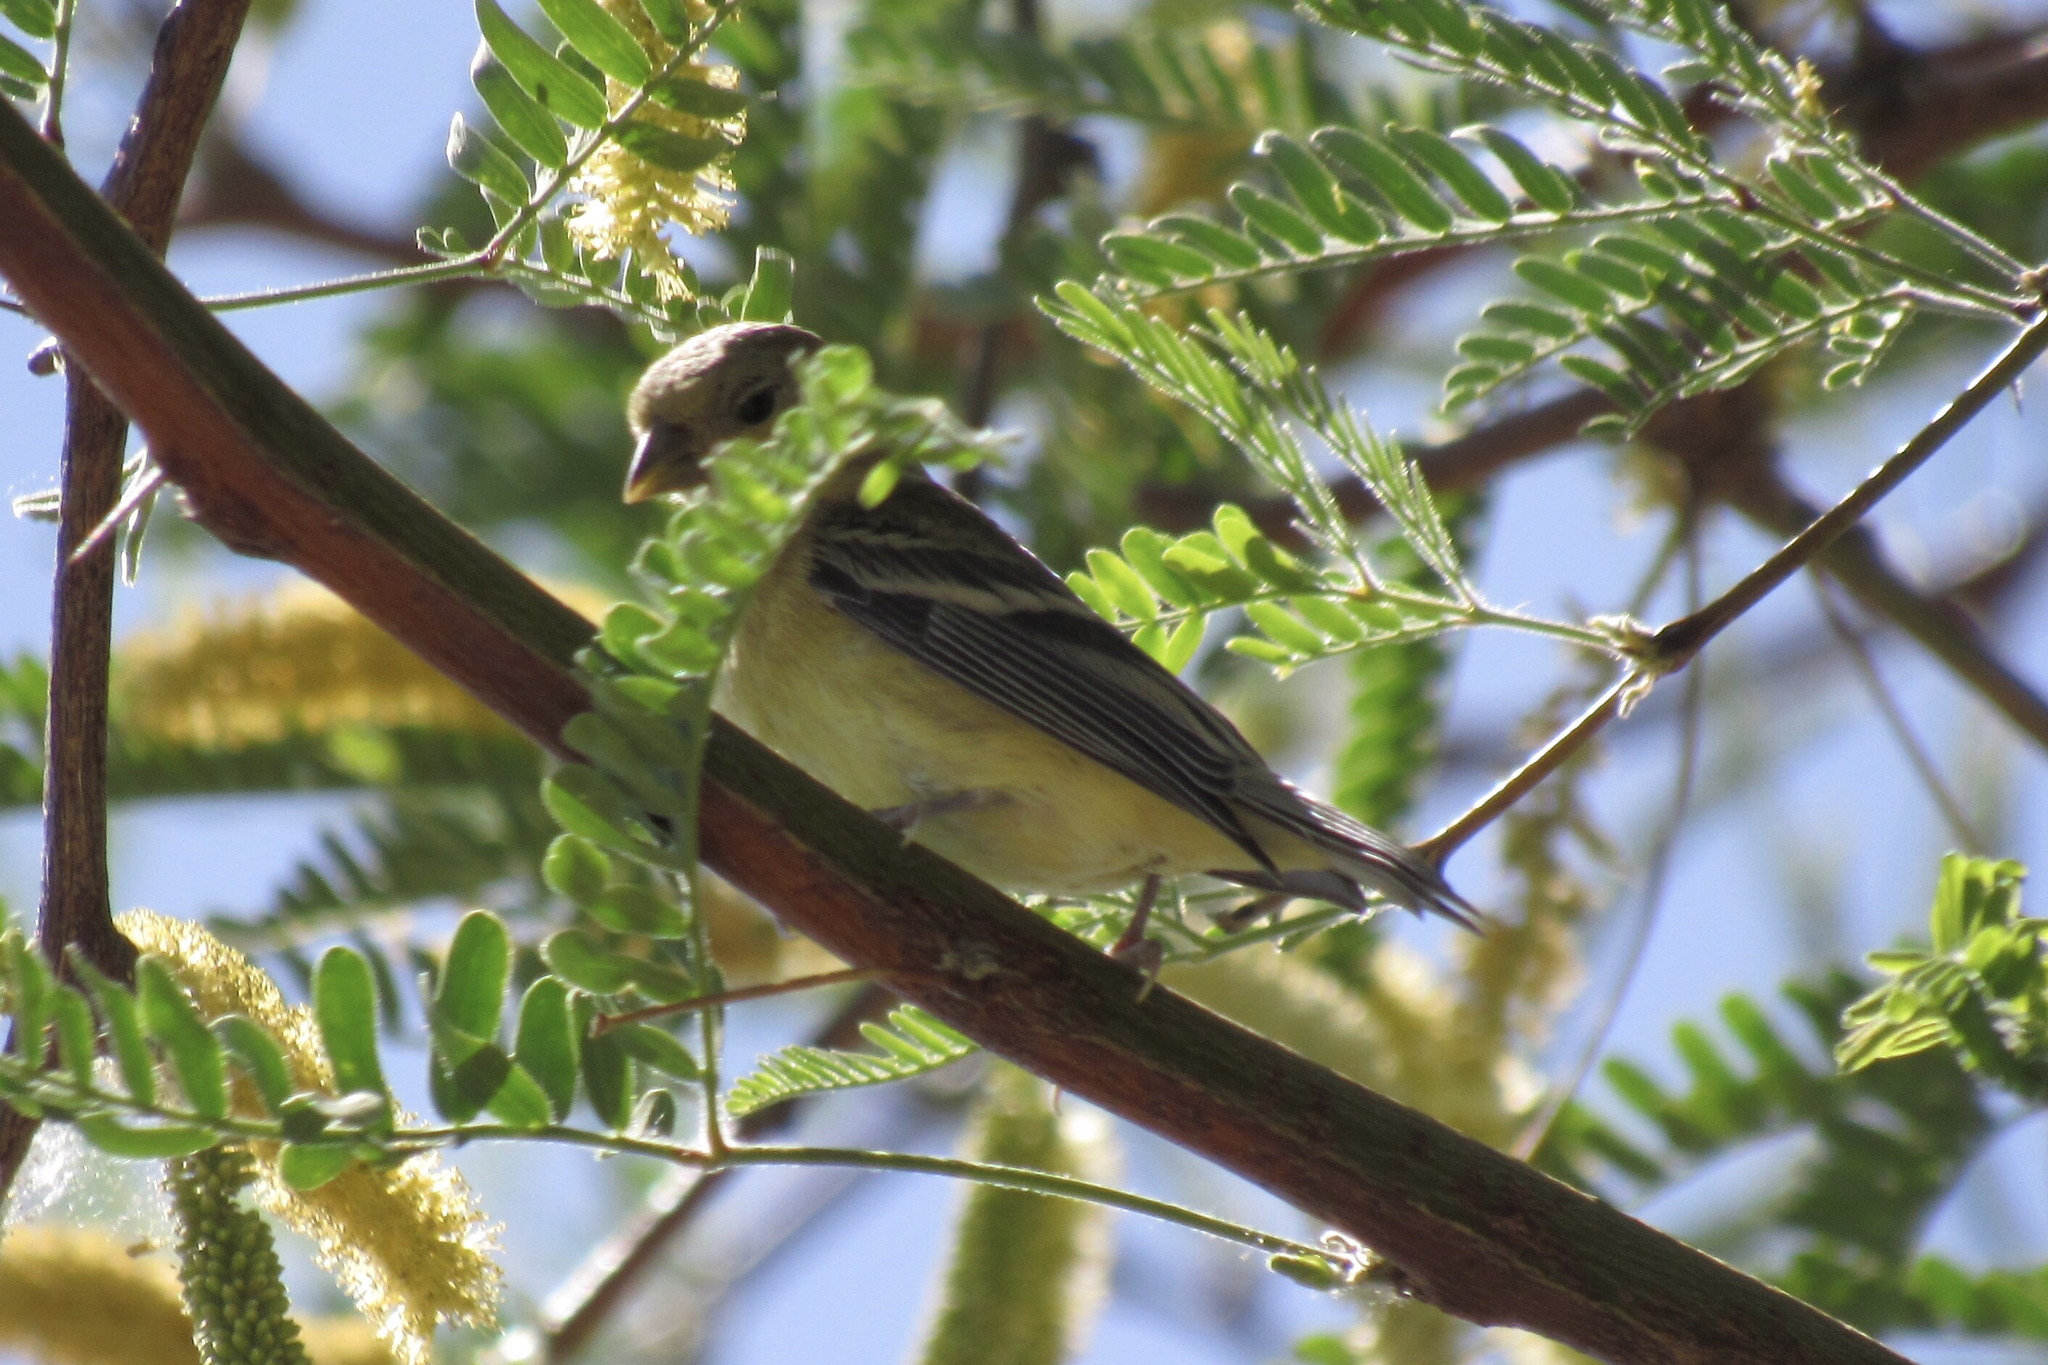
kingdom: Animalia
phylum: Chordata
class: Aves
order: Passeriformes
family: Fringillidae
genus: Spinus
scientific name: Spinus psaltria
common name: Lesser goldfinch
